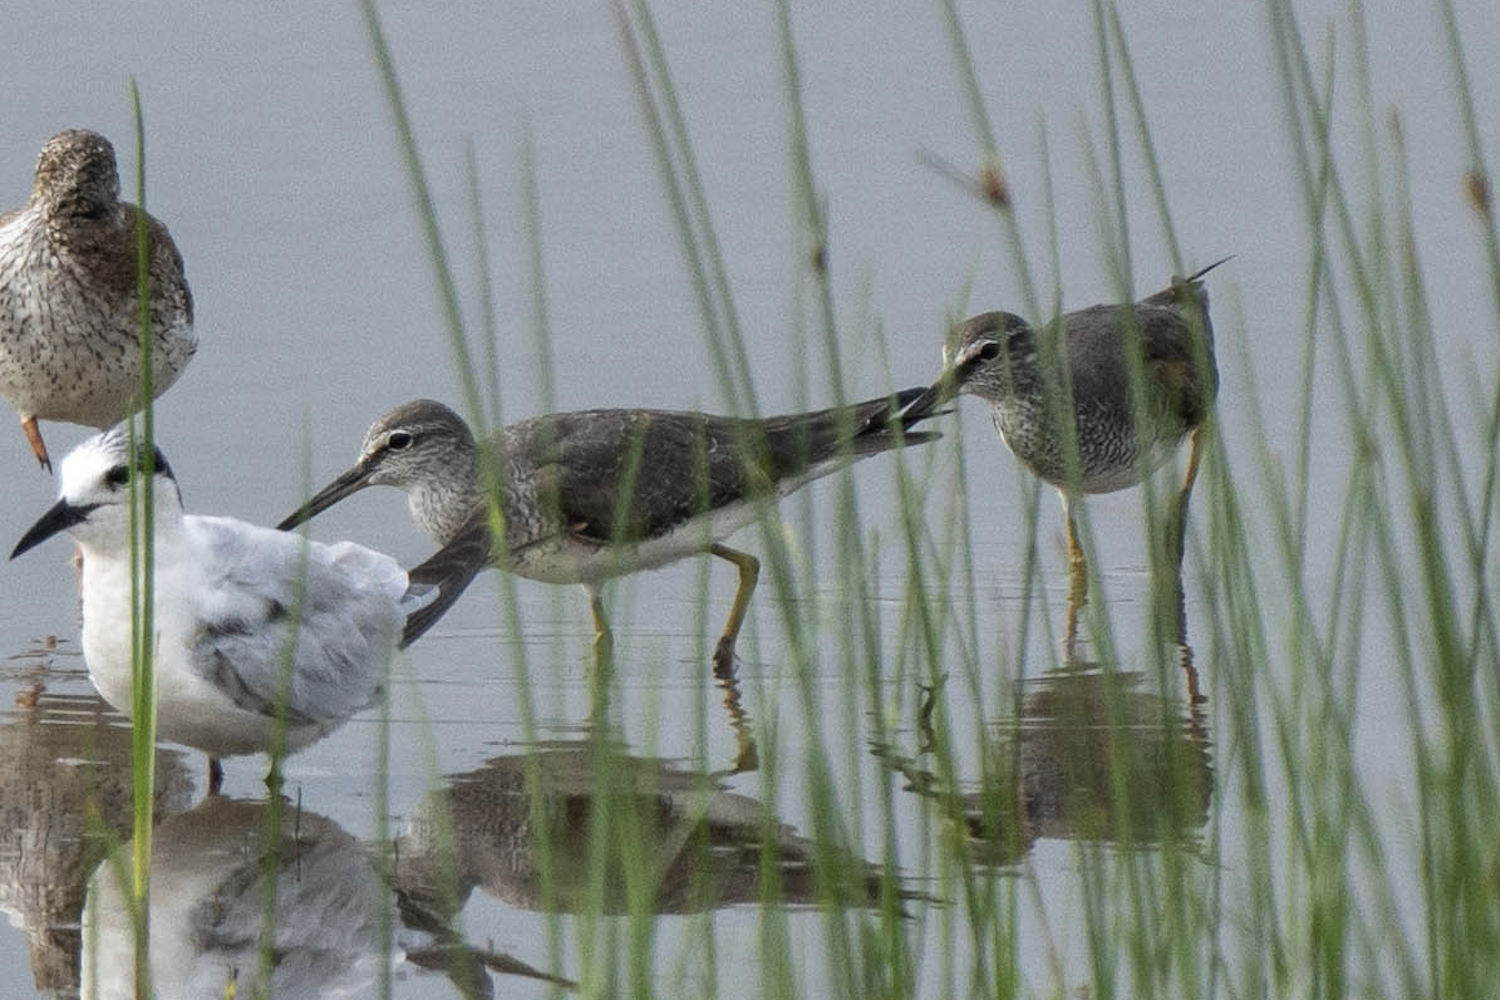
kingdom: Animalia
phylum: Chordata
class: Aves
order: Charadriiformes
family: Scolopacidae
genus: Tringa
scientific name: Tringa brevipes
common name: Grey-tailed tattler
